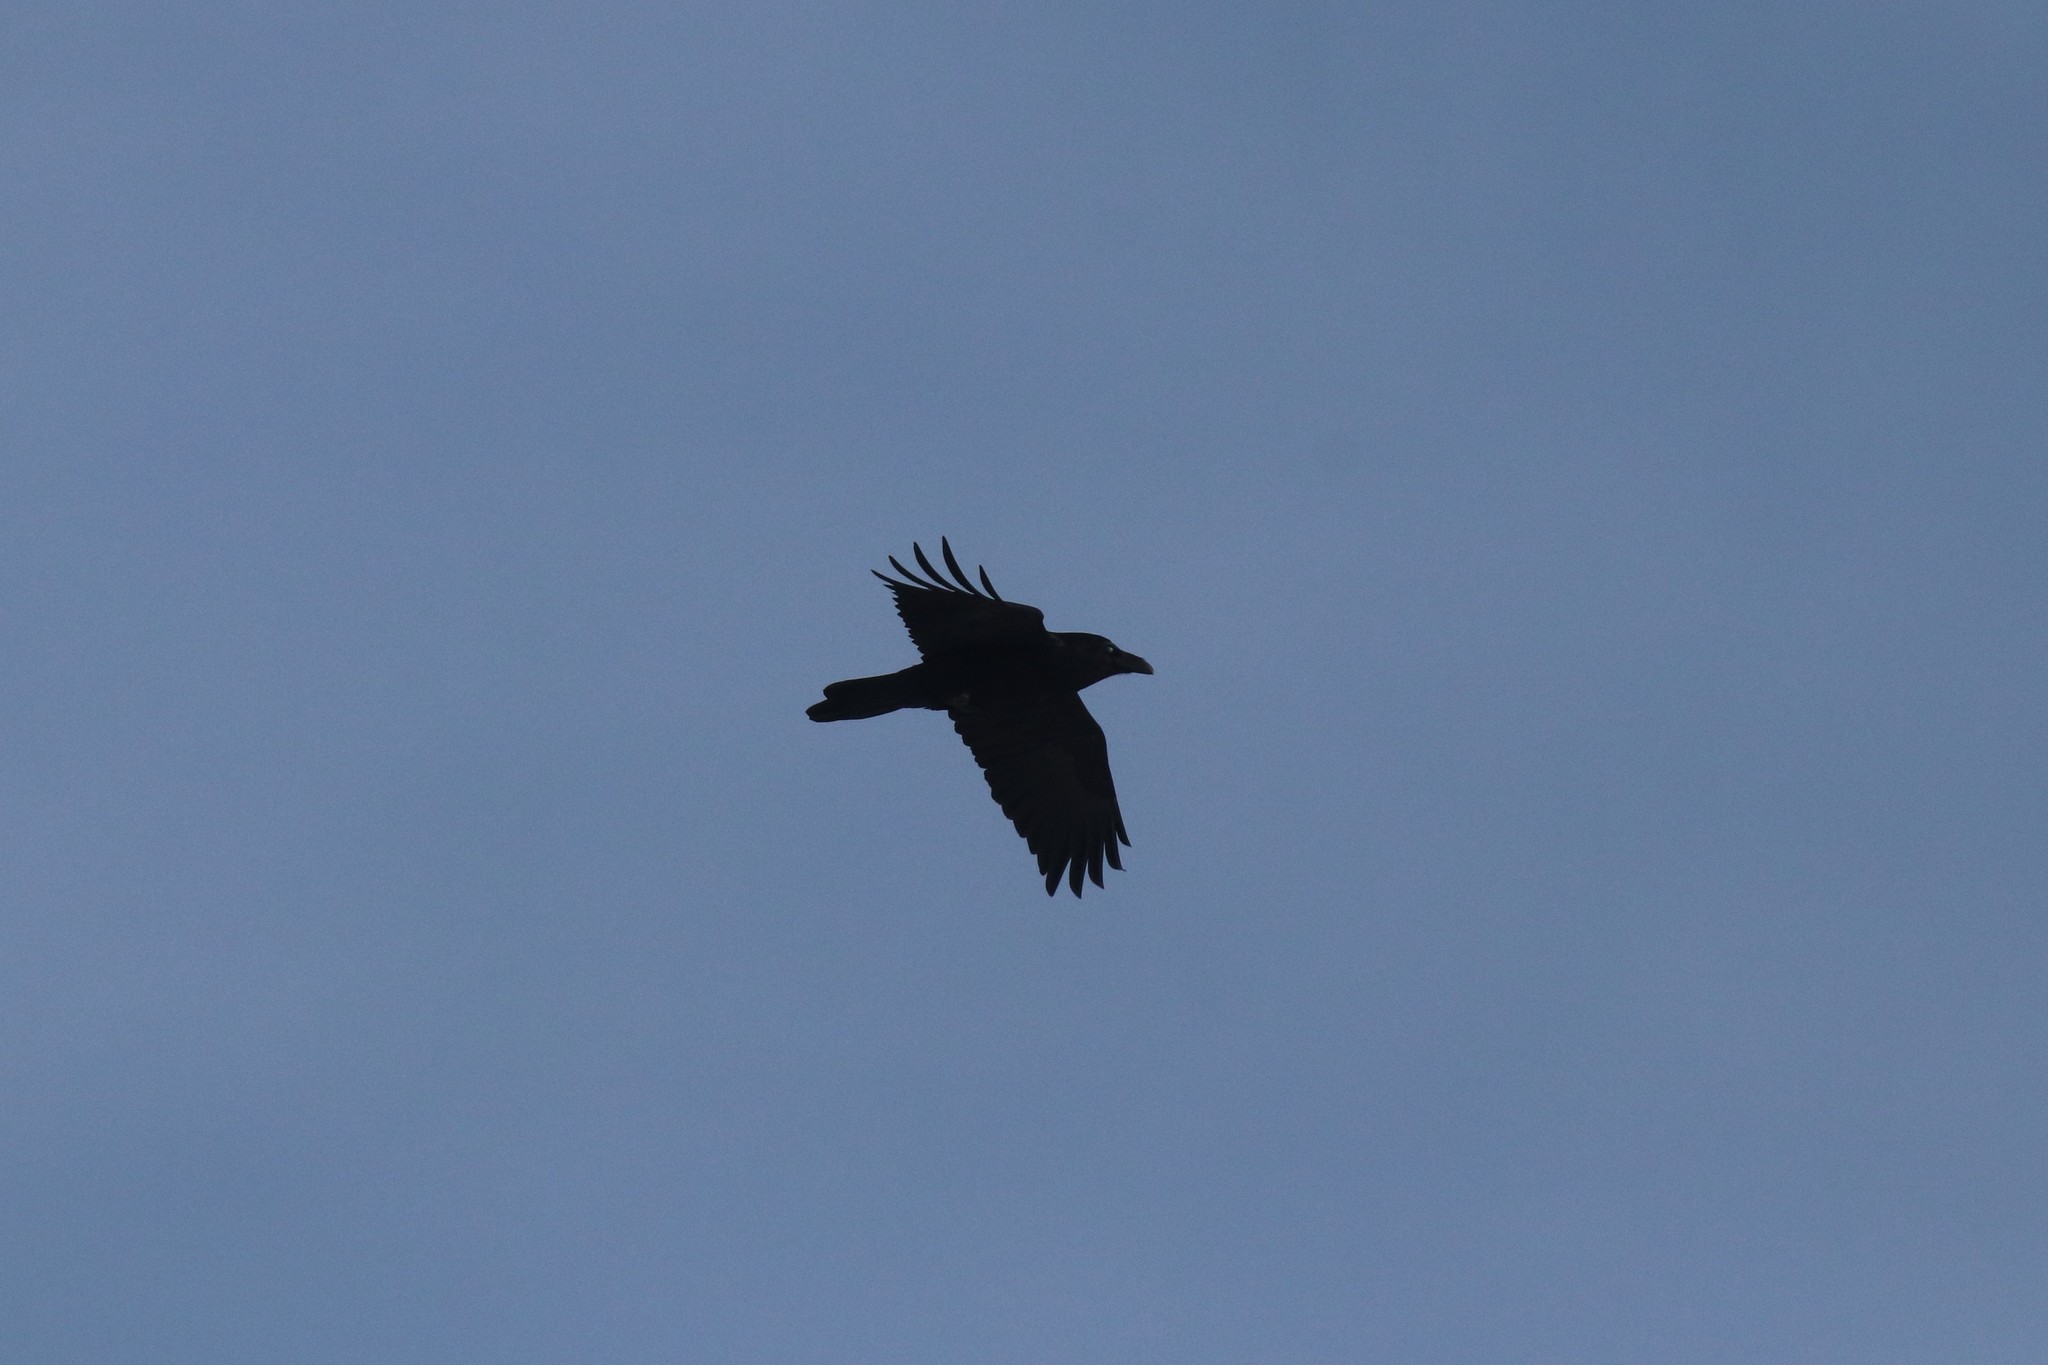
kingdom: Animalia
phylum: Chordata
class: Aves
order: Passeriformes
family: Corvidae
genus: Corvus
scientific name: Corvus corax
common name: Common raven
